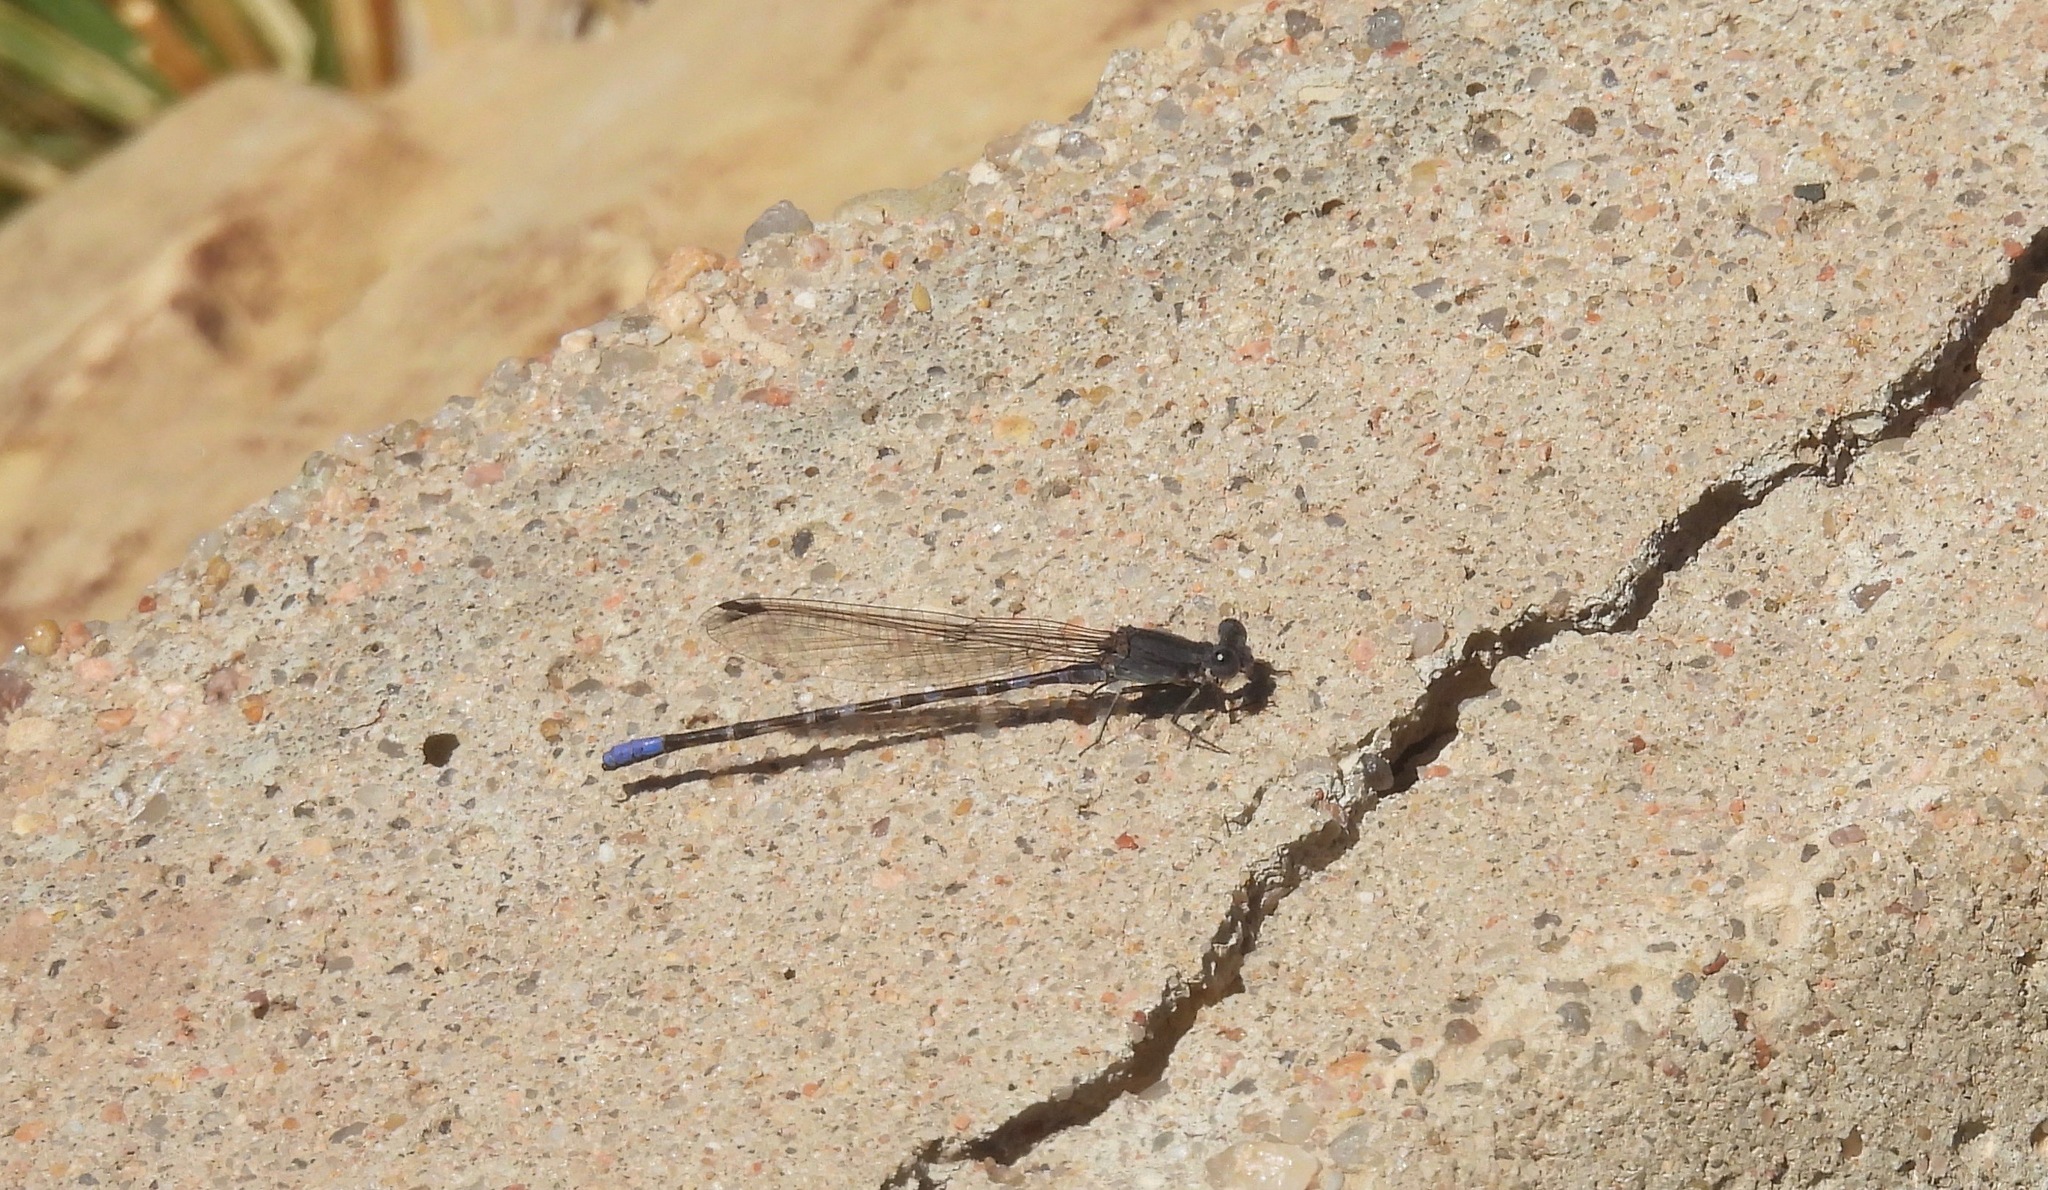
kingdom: Animalia
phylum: Arthropoda
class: Insecta
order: Odonata
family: Coenagrionidae
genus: Argia
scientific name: Argia immunda
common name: Kiowa dancer
